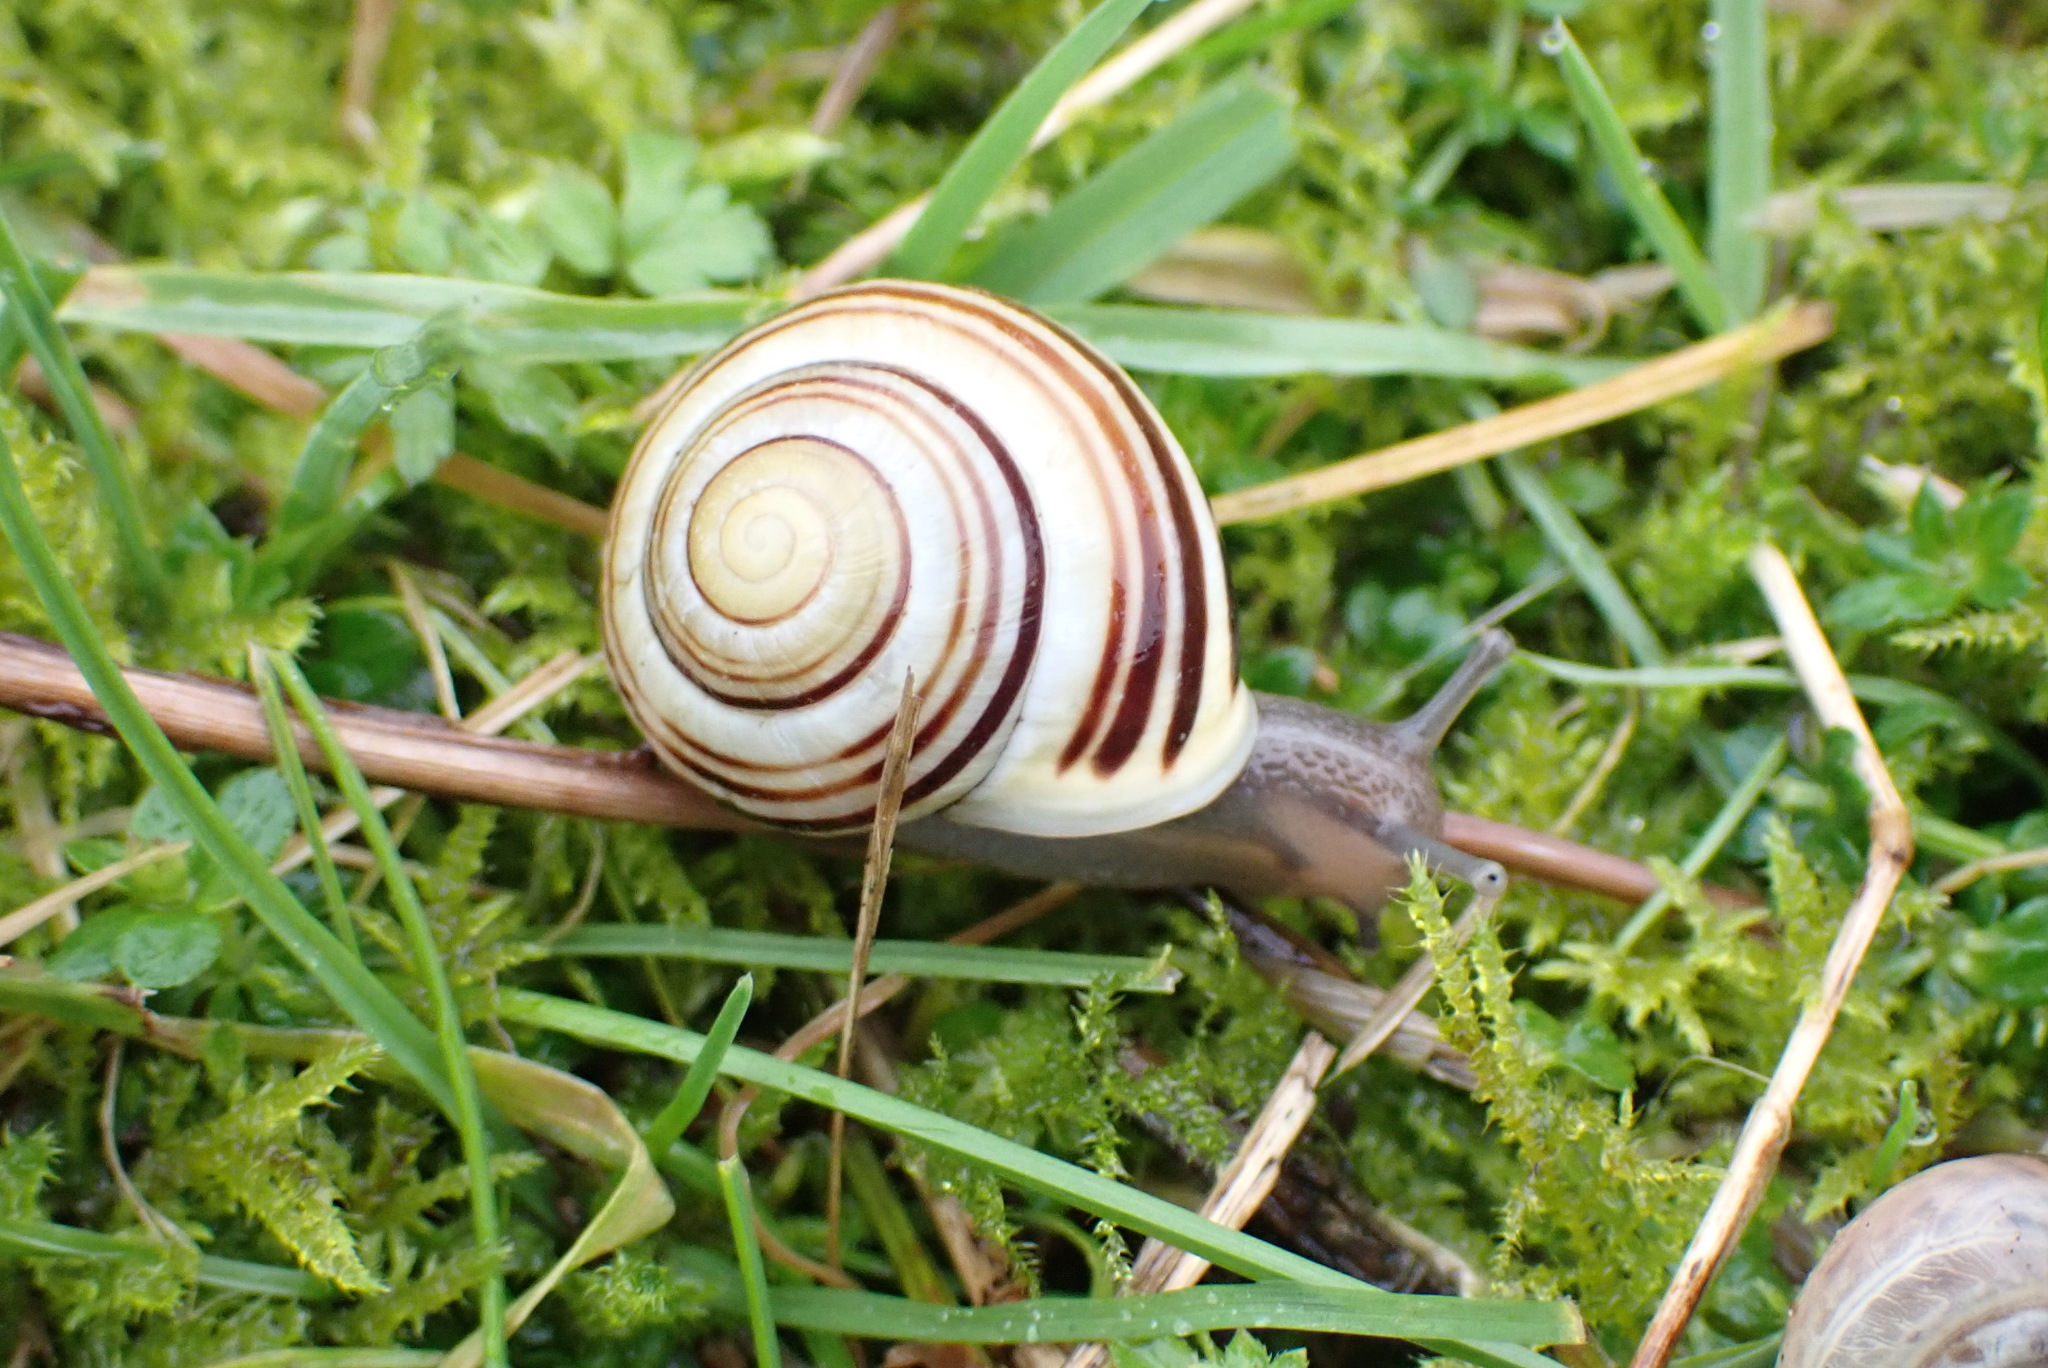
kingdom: Animalia
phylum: Mollusca
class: Gastropoda
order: Stylommatophora
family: Helicidae
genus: Cepaea
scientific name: Cepaea hortensis
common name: White-lip gardensnail
